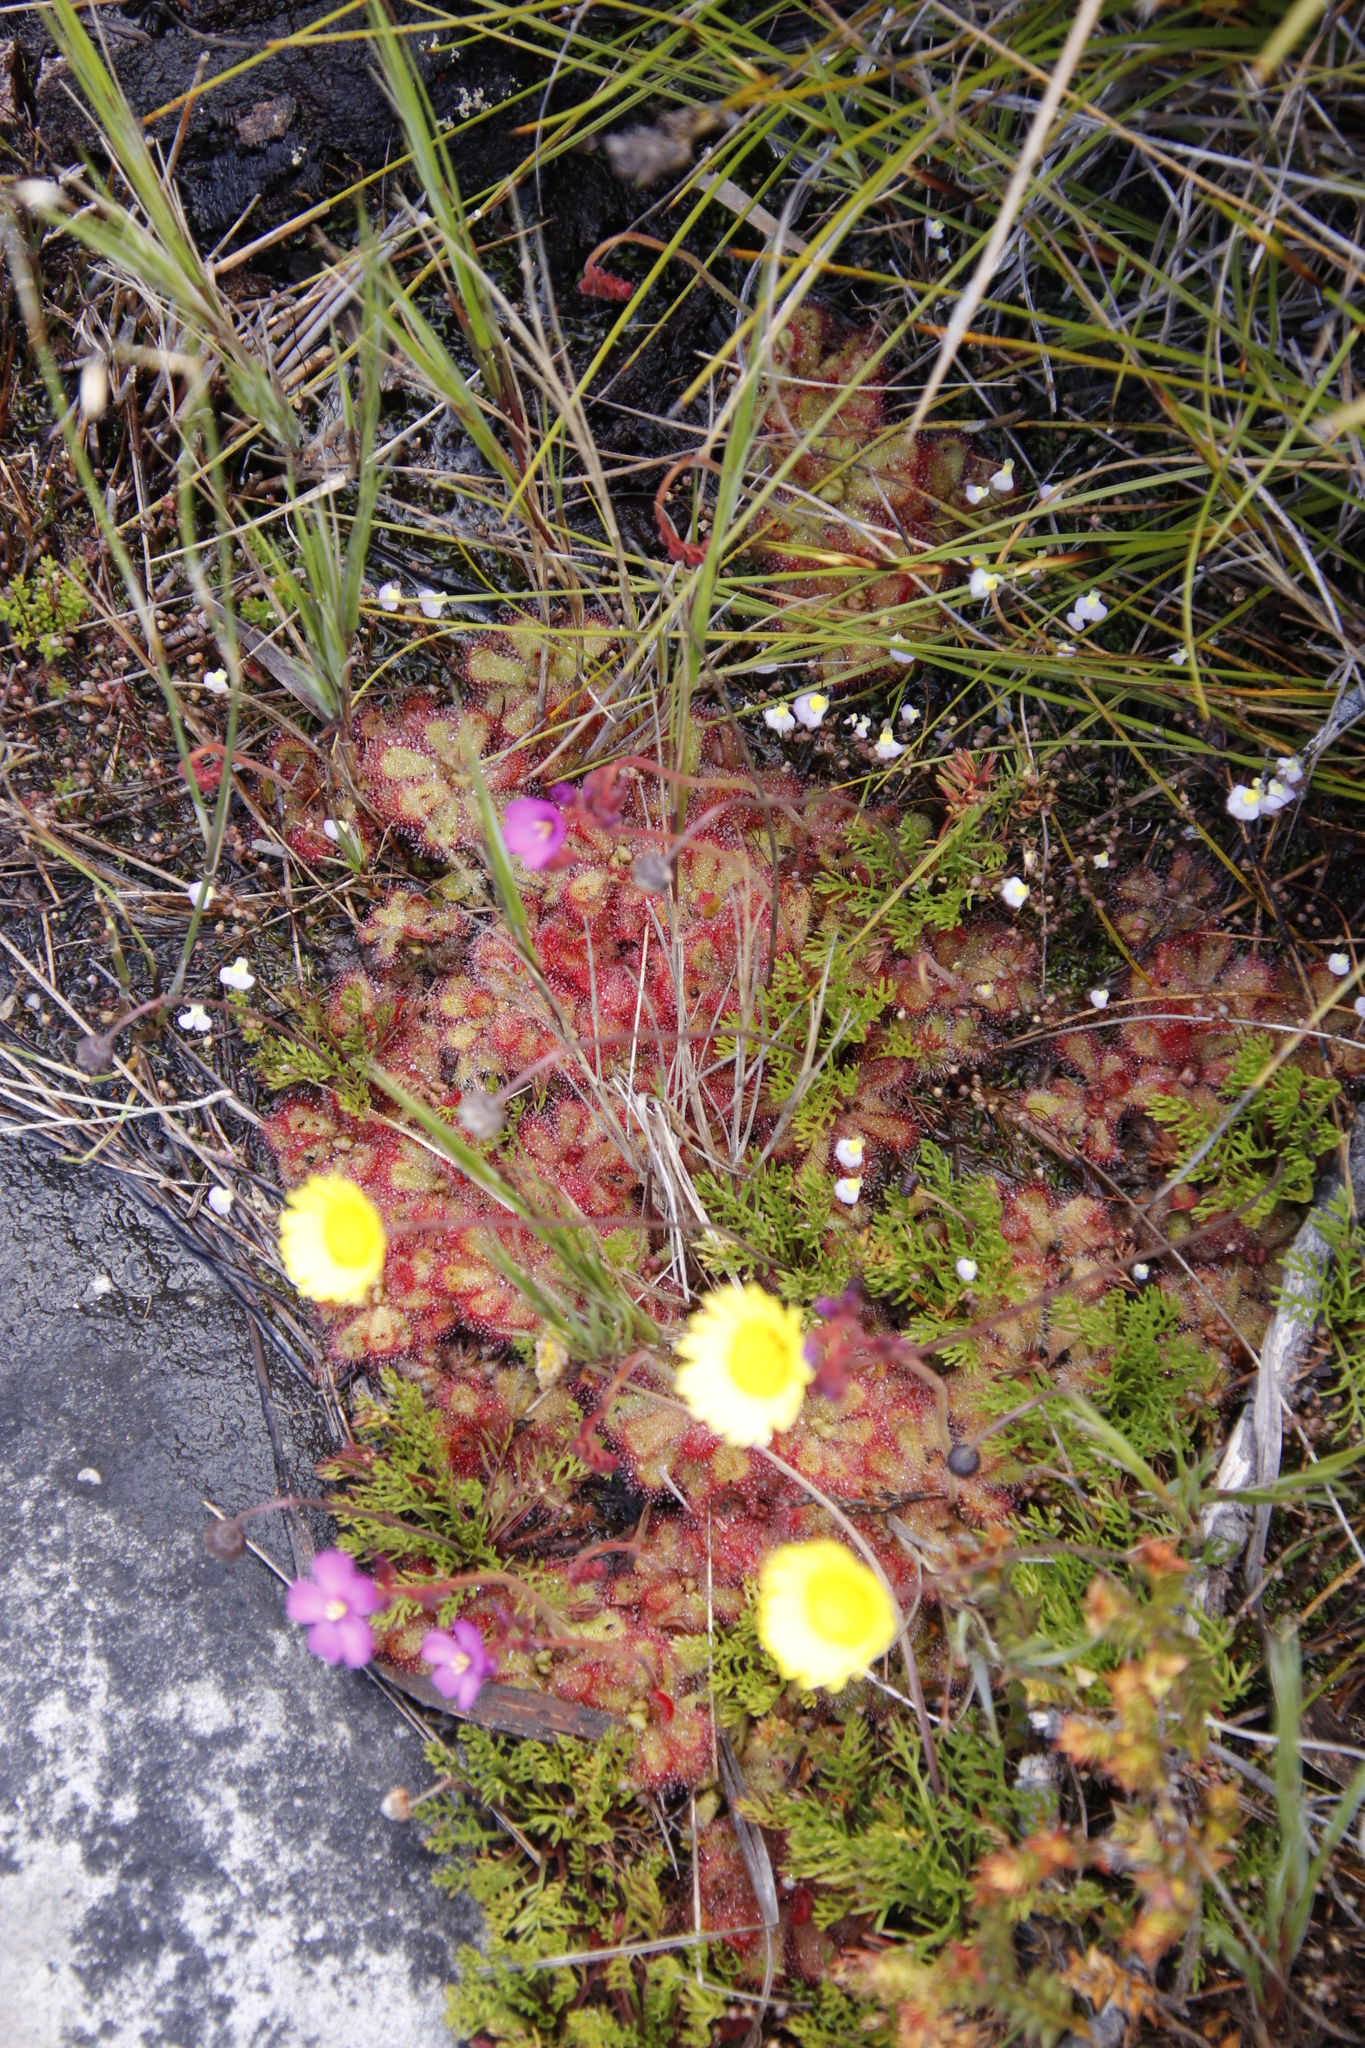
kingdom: Plantae
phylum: Tracheophyta
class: Magnoliopsida
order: Asterales
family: Asteraceae
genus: Ursinia
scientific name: Ursinia nudicaulis
